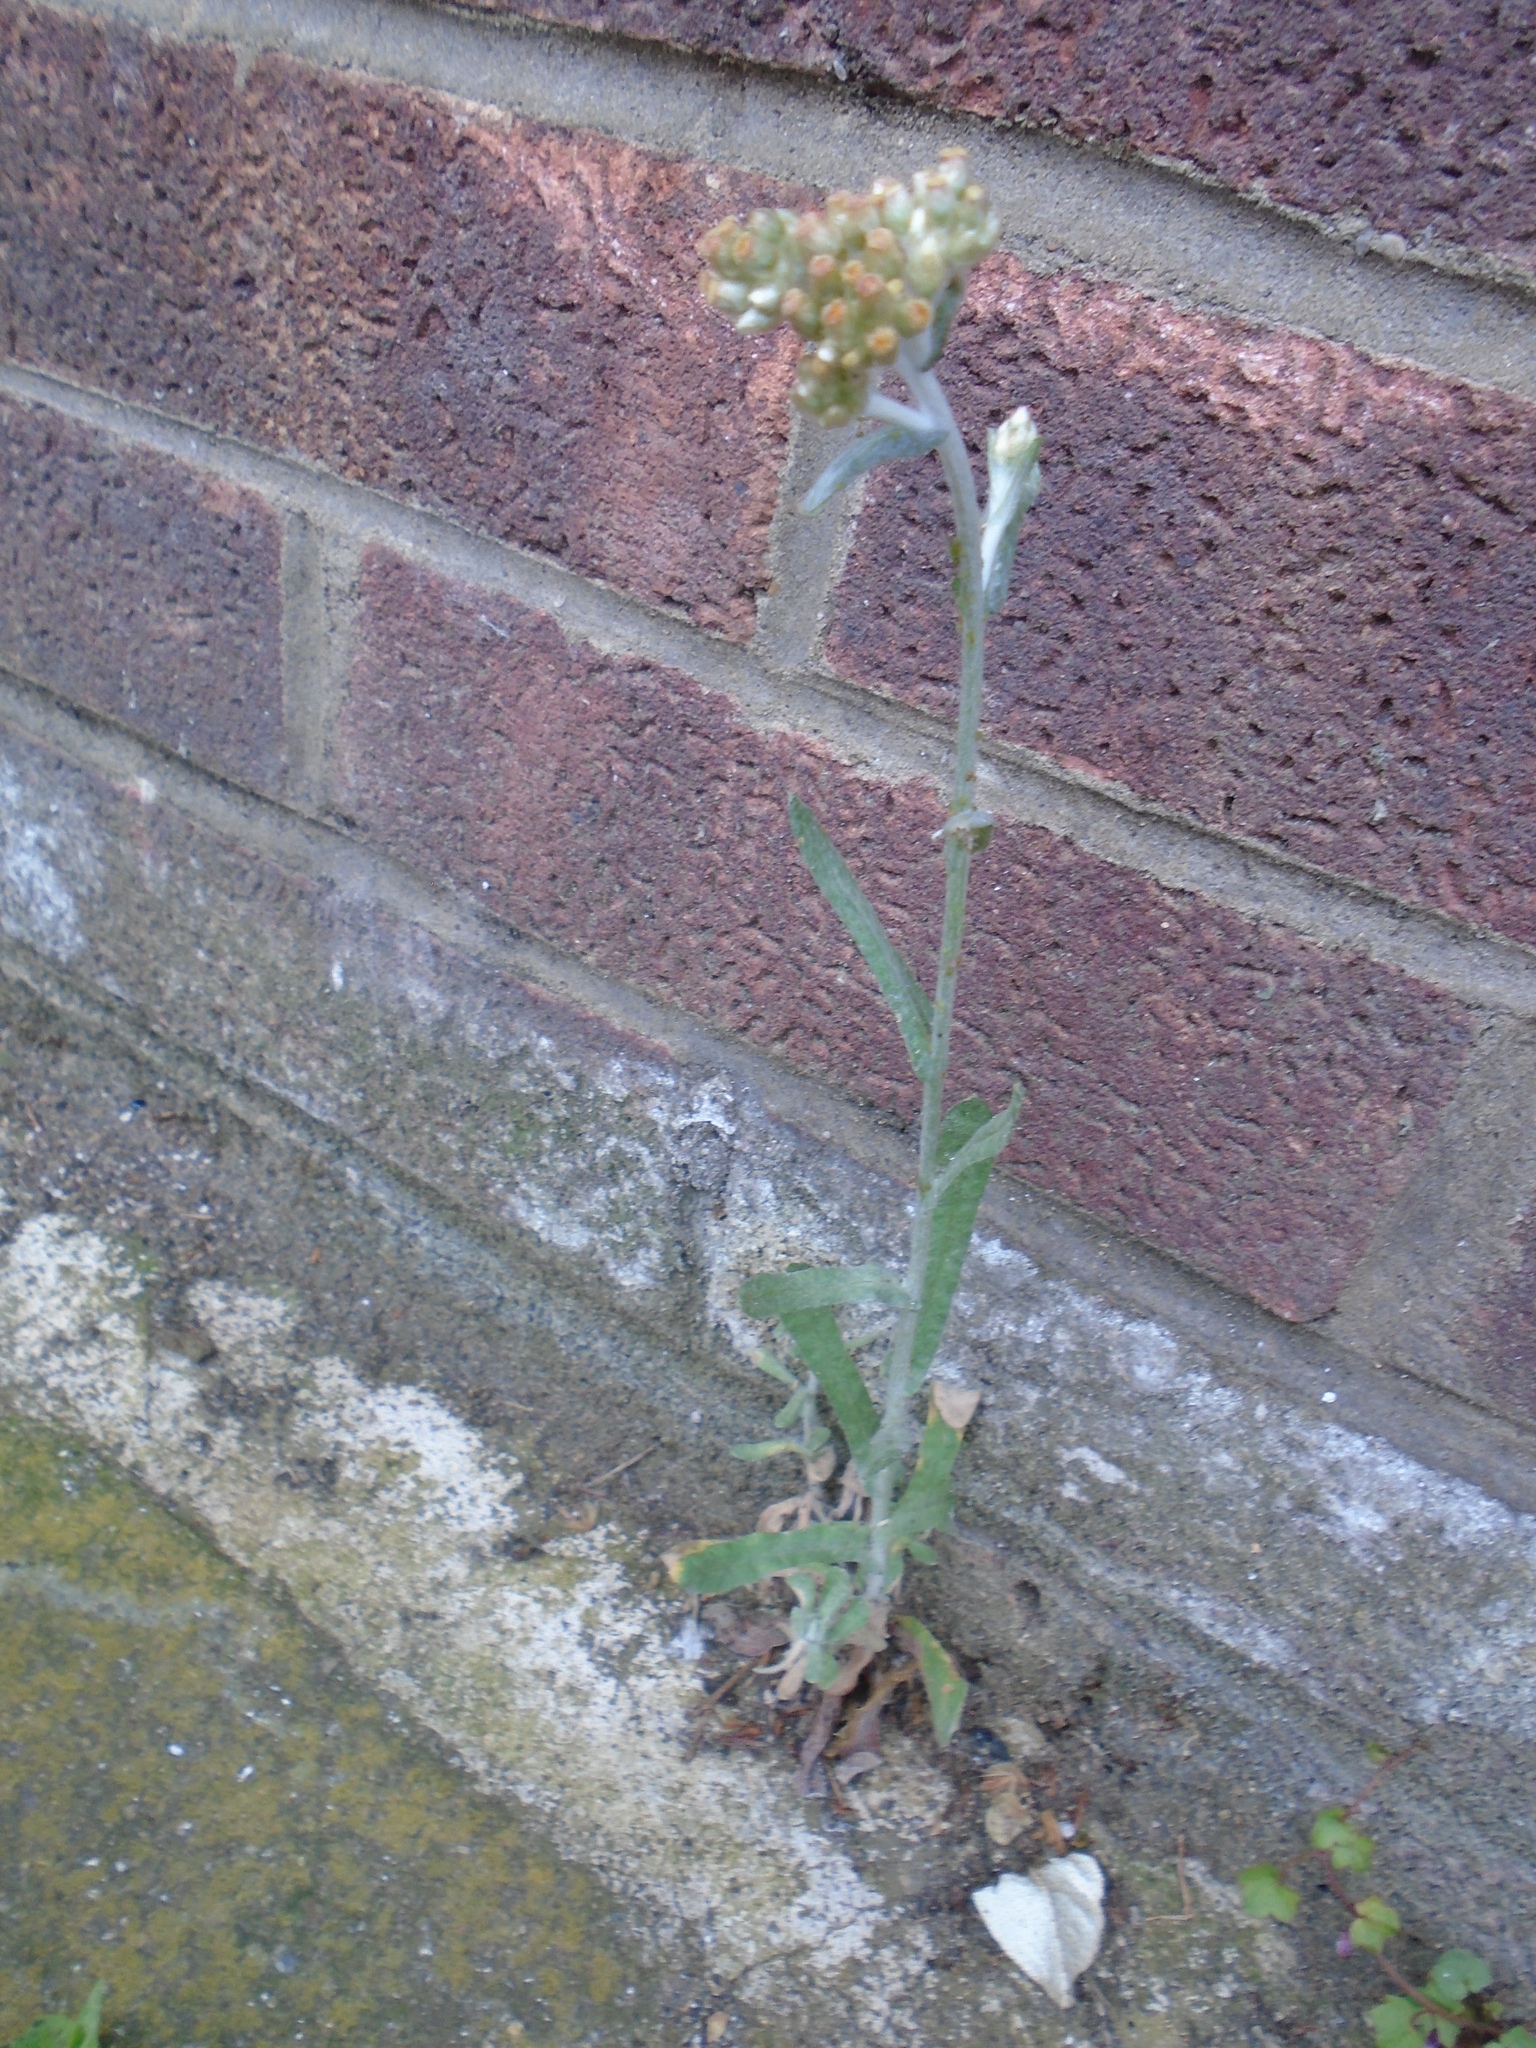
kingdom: Plantae
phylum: Tracheophyta
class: Magnoliopsida
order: Asterales
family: Asteraceae
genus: Helichrysum
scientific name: Helichrysum luteoalbum
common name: Daisy
